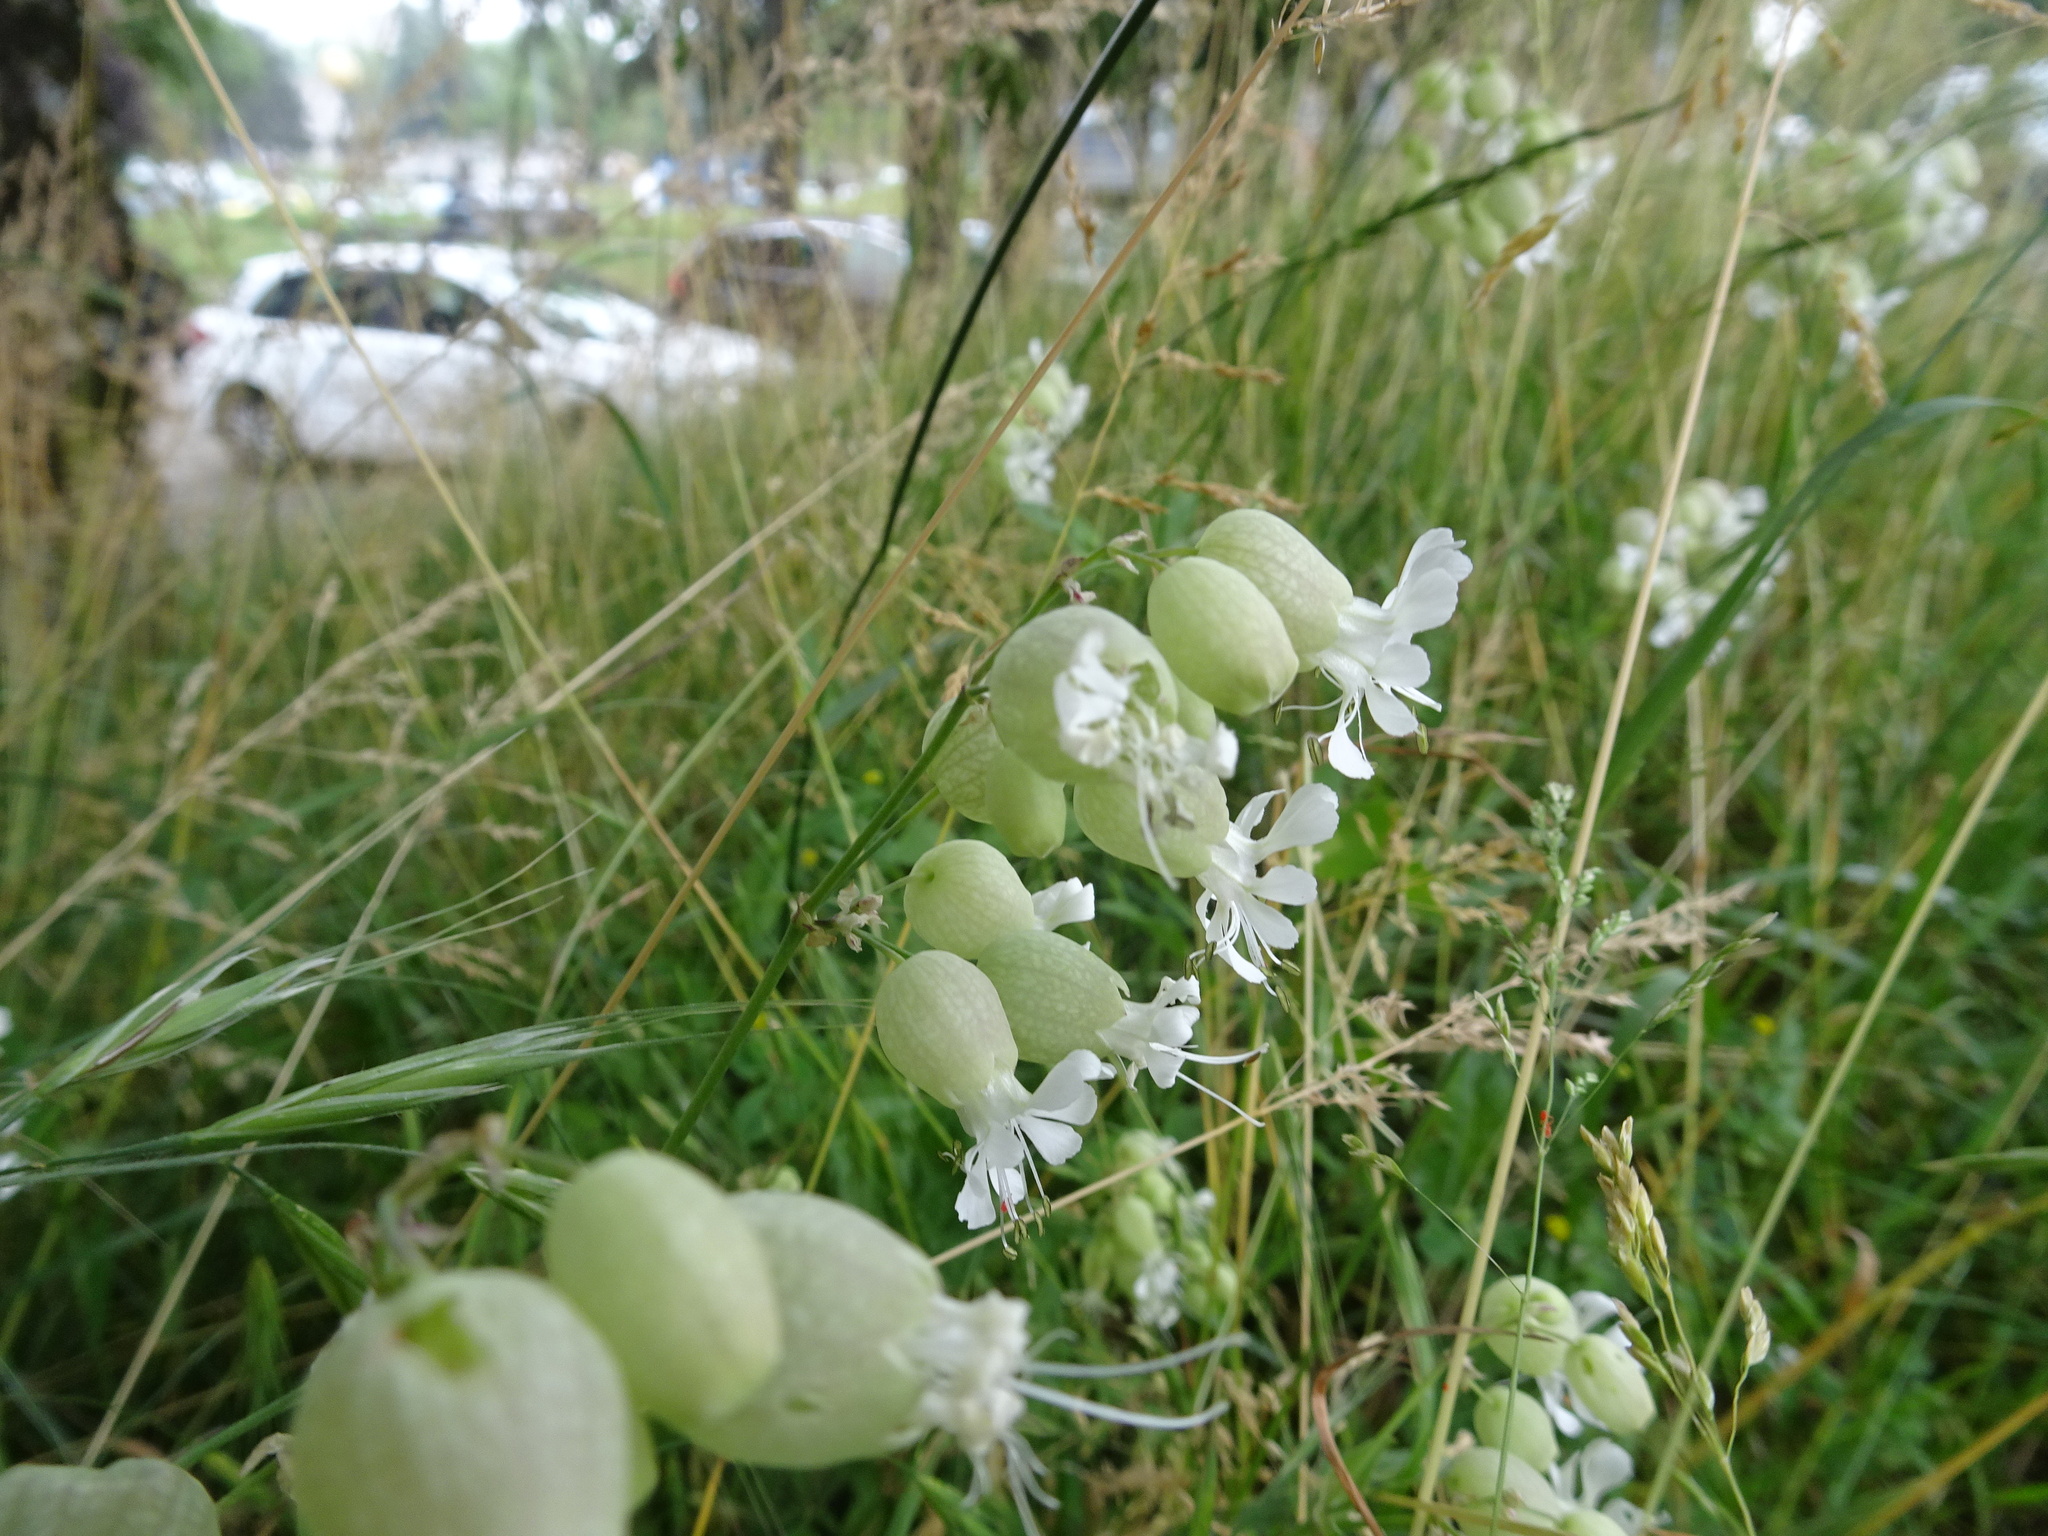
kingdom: Plantae
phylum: Tracheophyta
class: Magnoliopsida
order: Caryophyllales
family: Caryophyllaceae
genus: Silene
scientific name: Silene vulgaris
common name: Bladder campion
